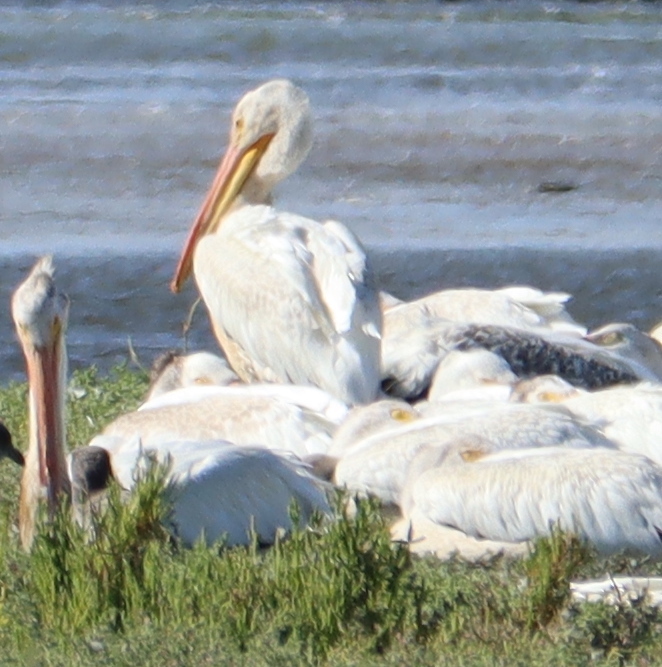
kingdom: Animalia
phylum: Chordata
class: Aves
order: Pelecaniformes
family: Pelecanidae
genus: Pelecanus
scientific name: Pelecanus erythrorhynchos
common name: American white pelican
